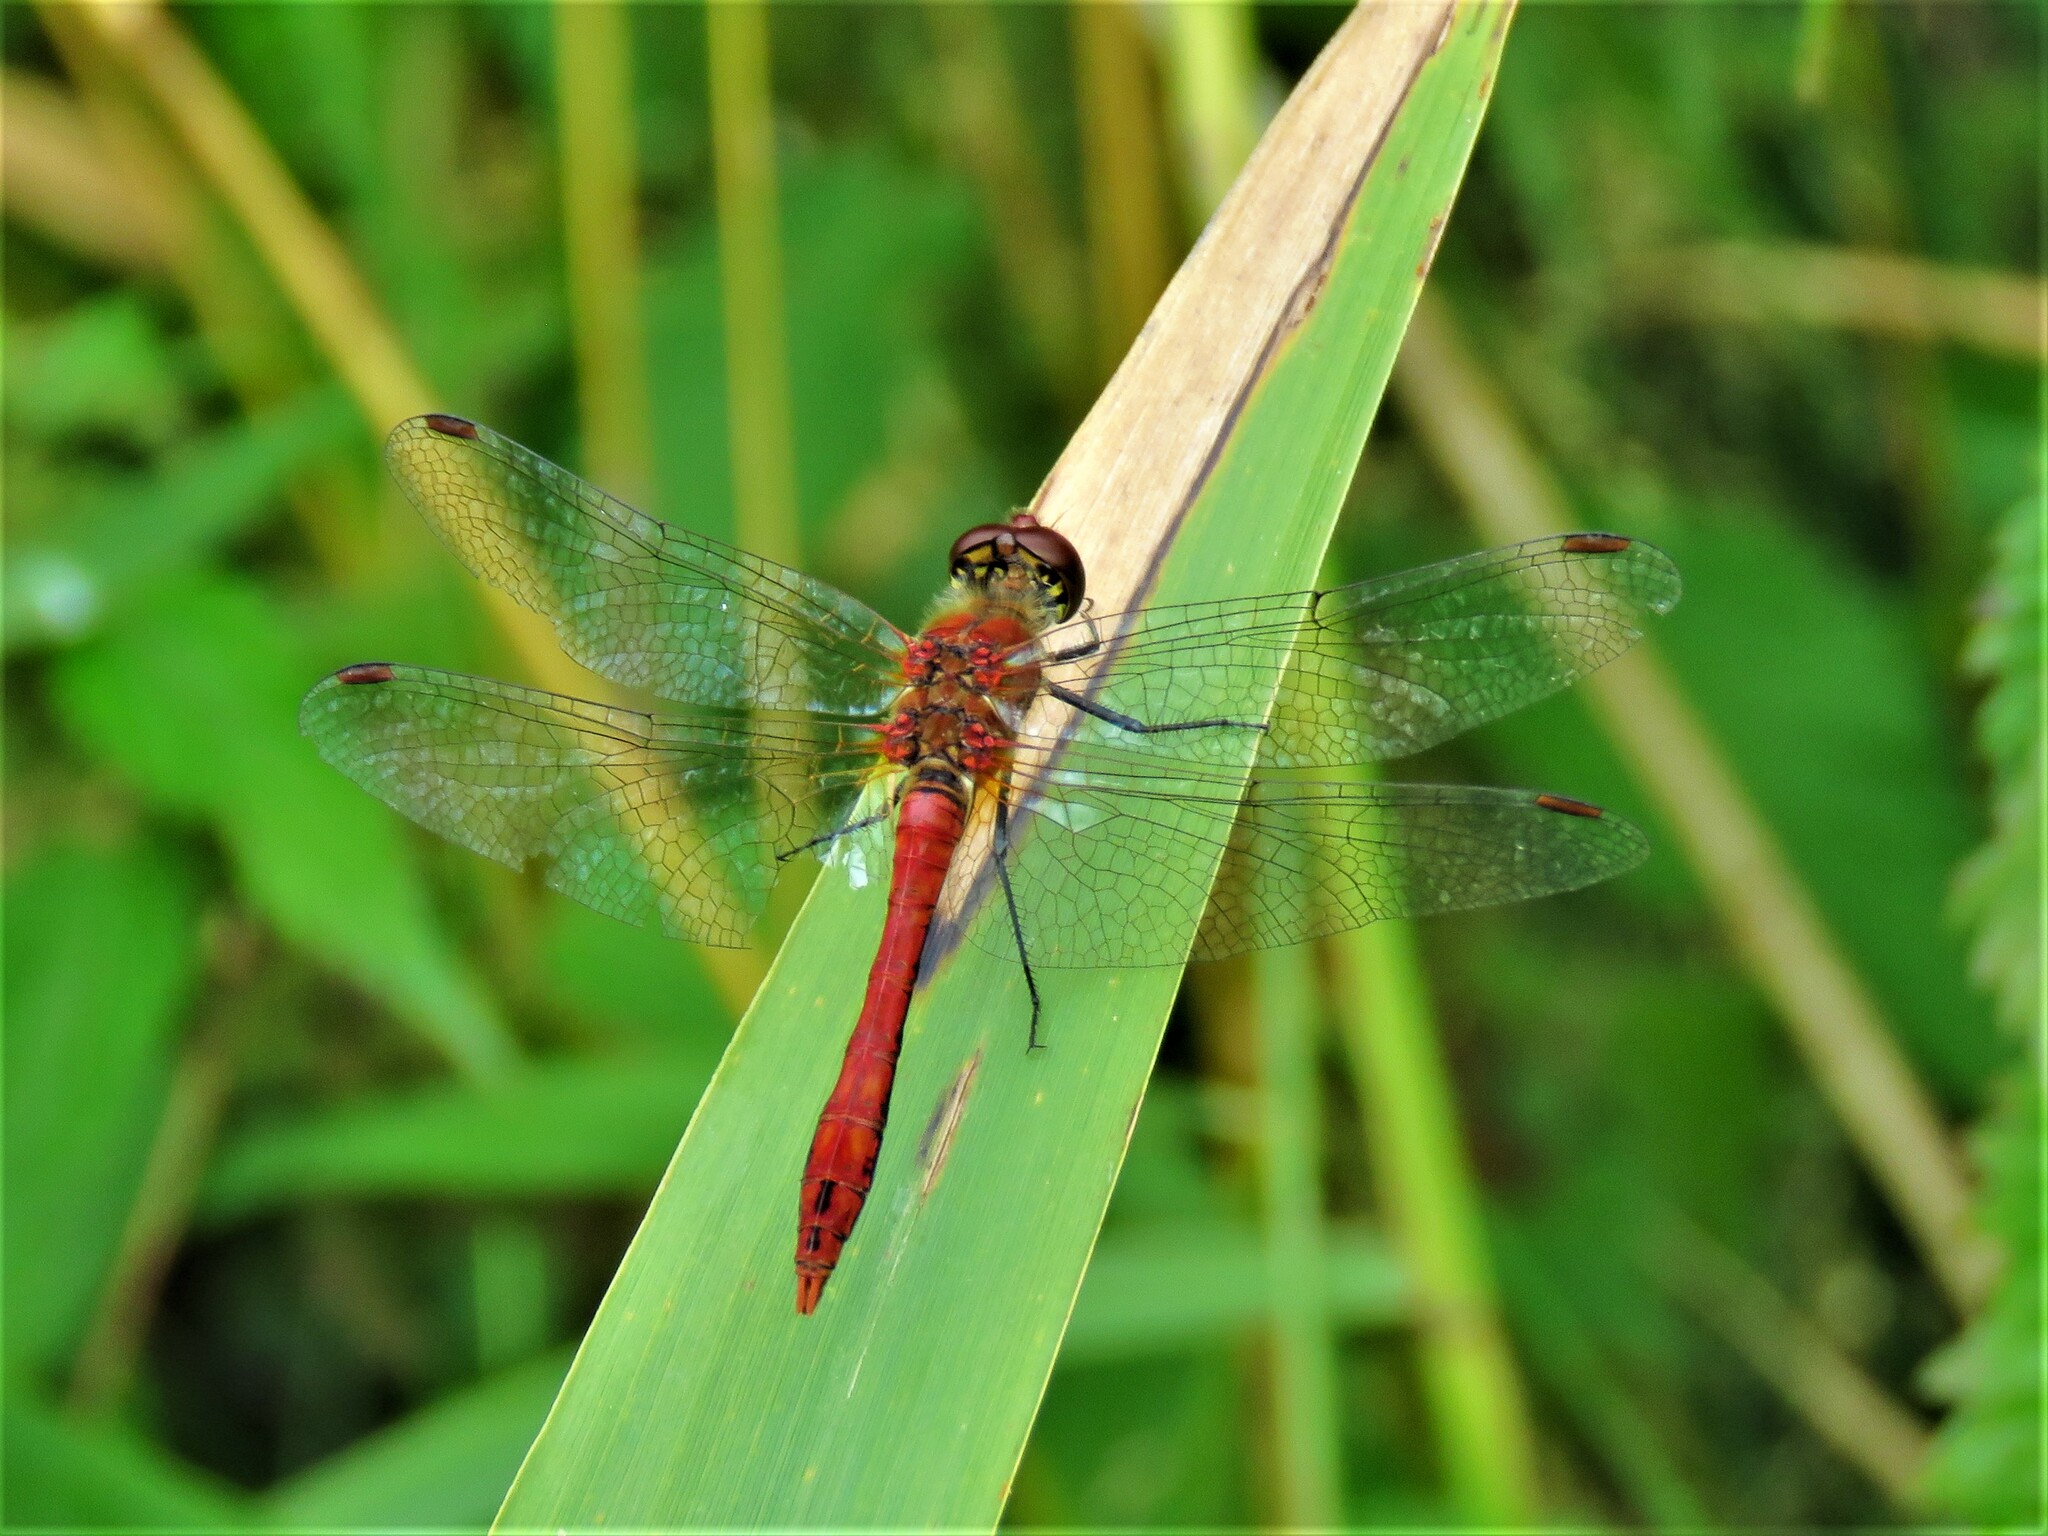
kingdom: Animalia
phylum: Arthropoda
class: Insecta
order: Odonata
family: Libellulidae
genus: Sympetrum
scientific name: Sympetrum sanguineum
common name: Ruddy darter
